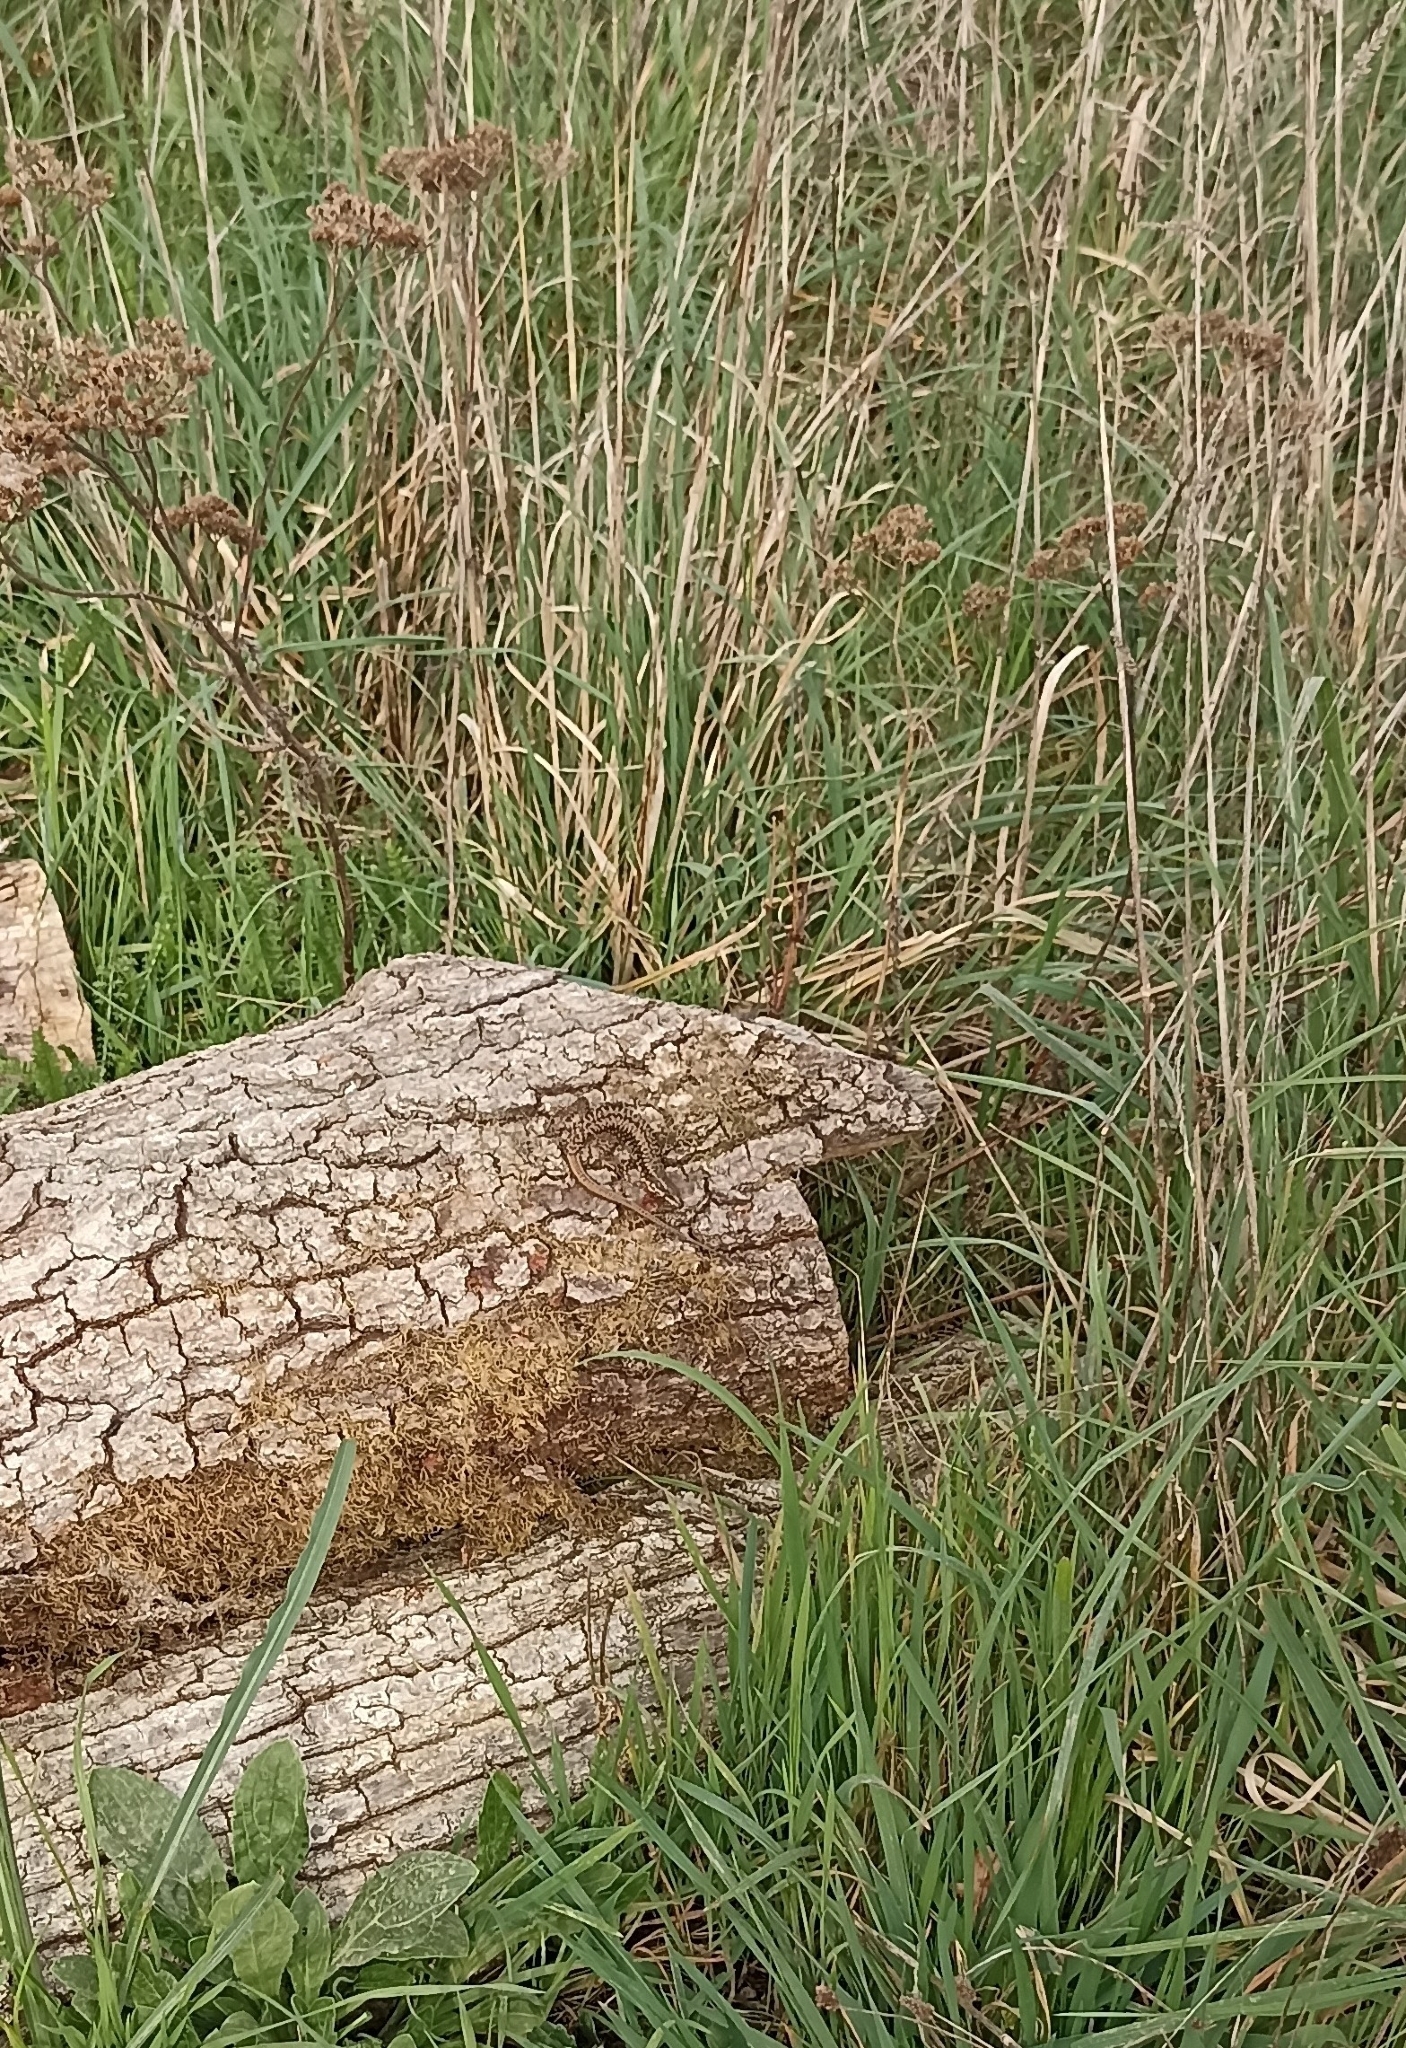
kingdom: Animalia
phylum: Chordata
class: Squamata
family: Lacertidae
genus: Podarcis
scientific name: Podarcis muralis
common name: Common wall lizard
